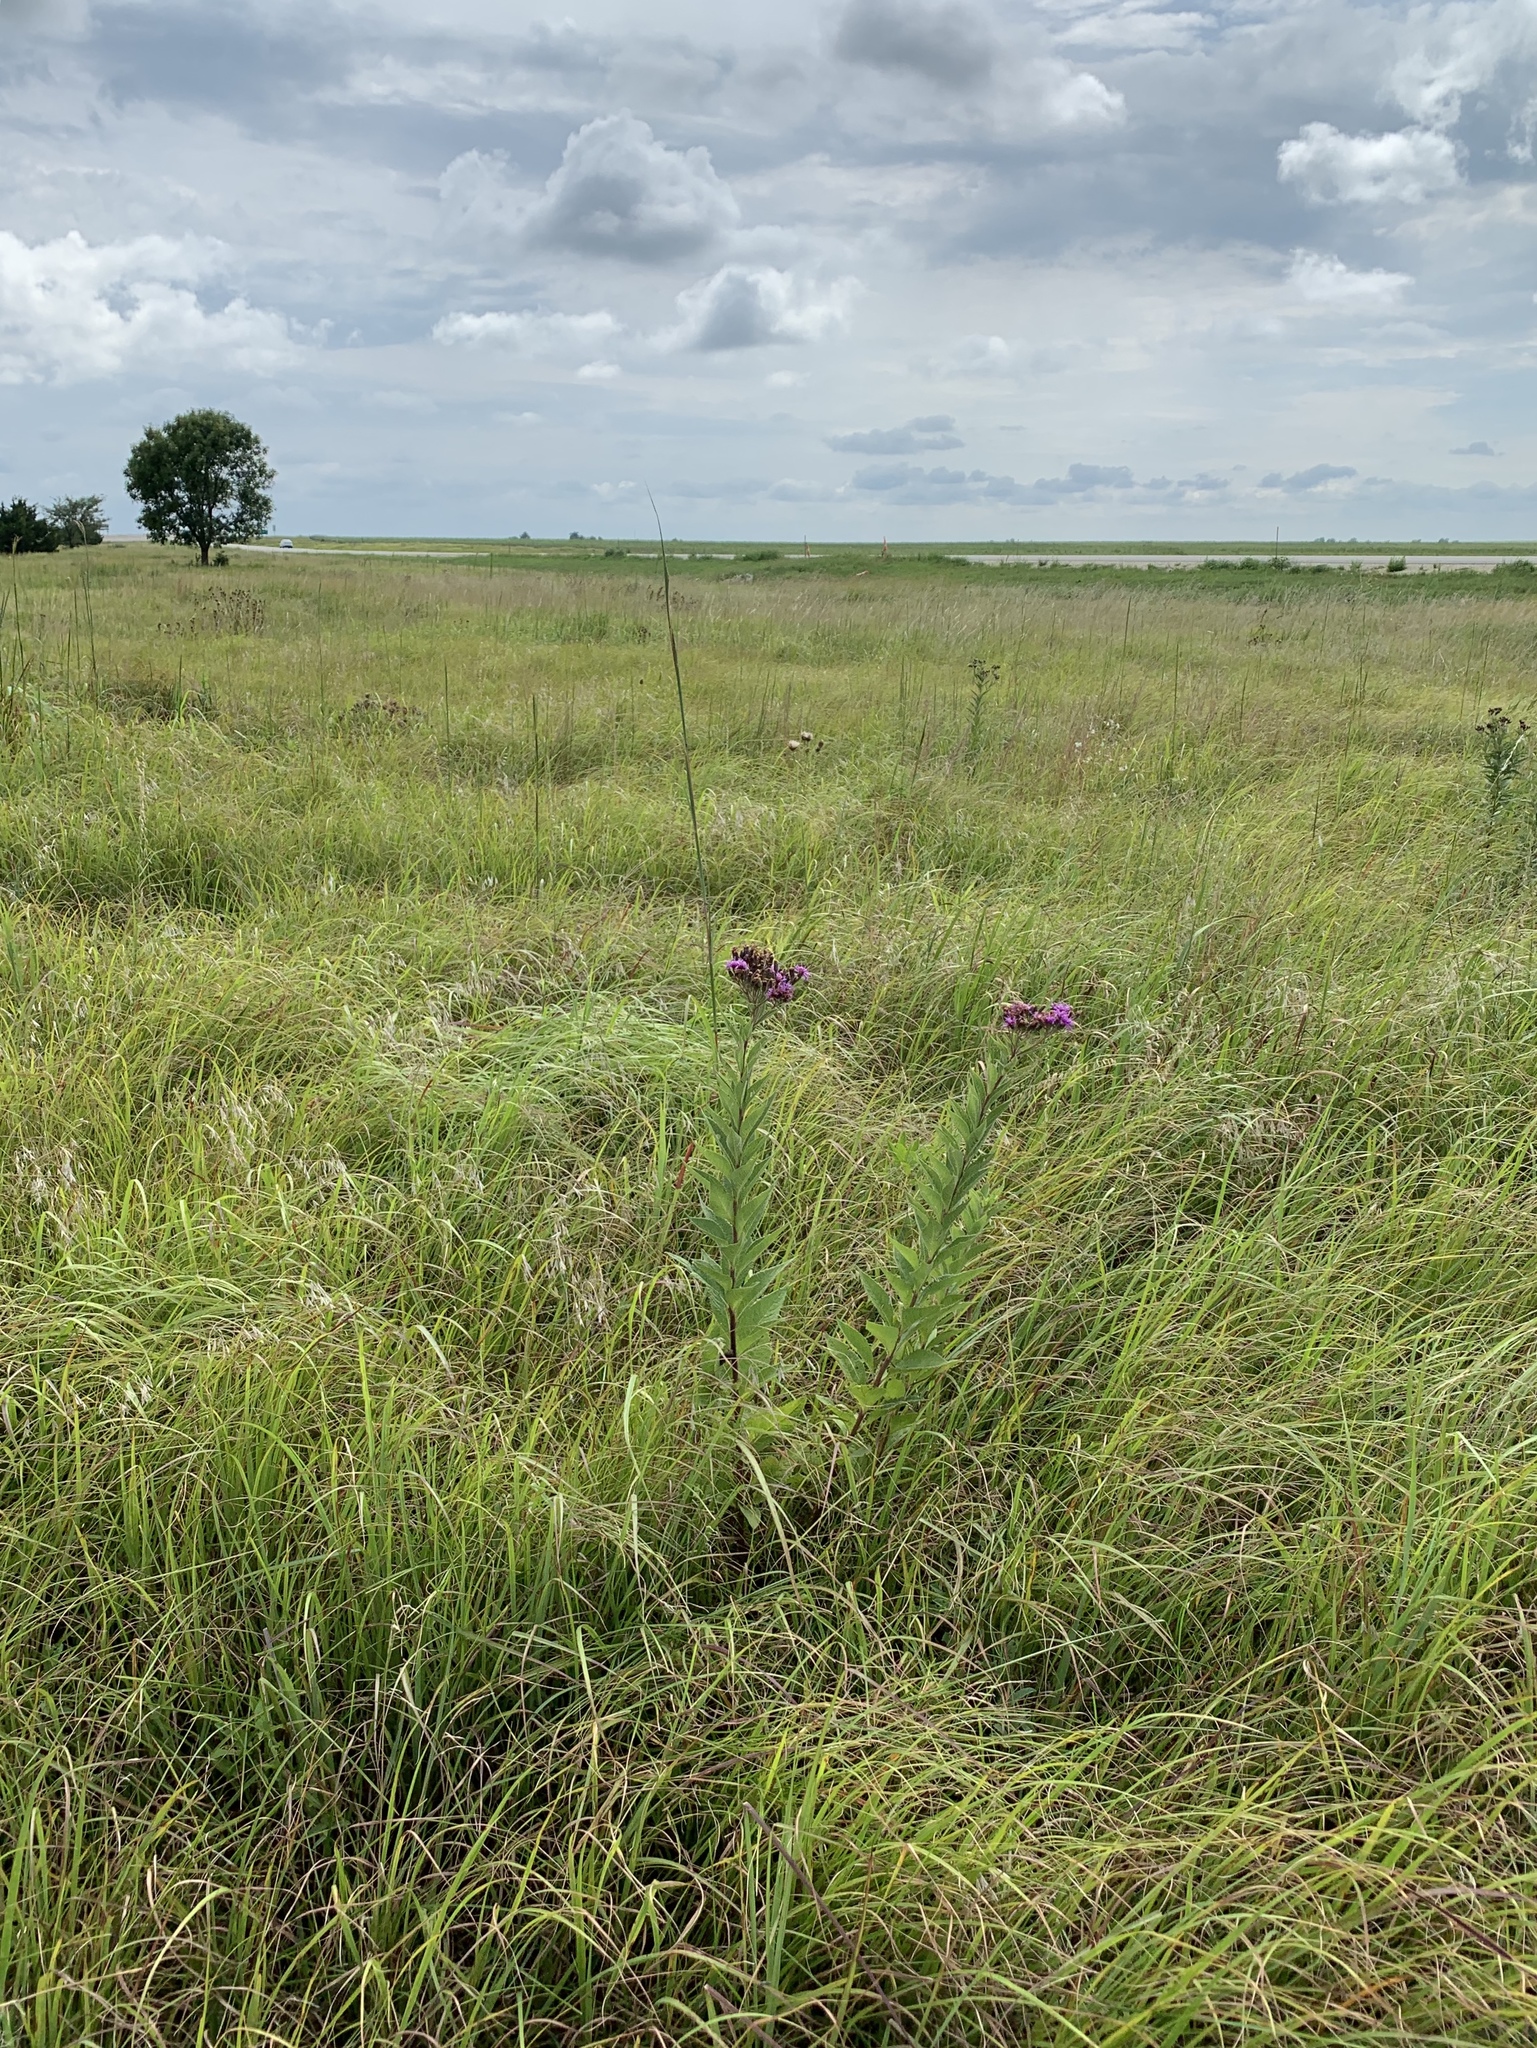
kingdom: Plantae
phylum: Tracheophyta
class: Magnoliopsida
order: Asterales
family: Asteraceae
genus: Vernonia
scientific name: Vernonia baldwinii
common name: Western ironweed
